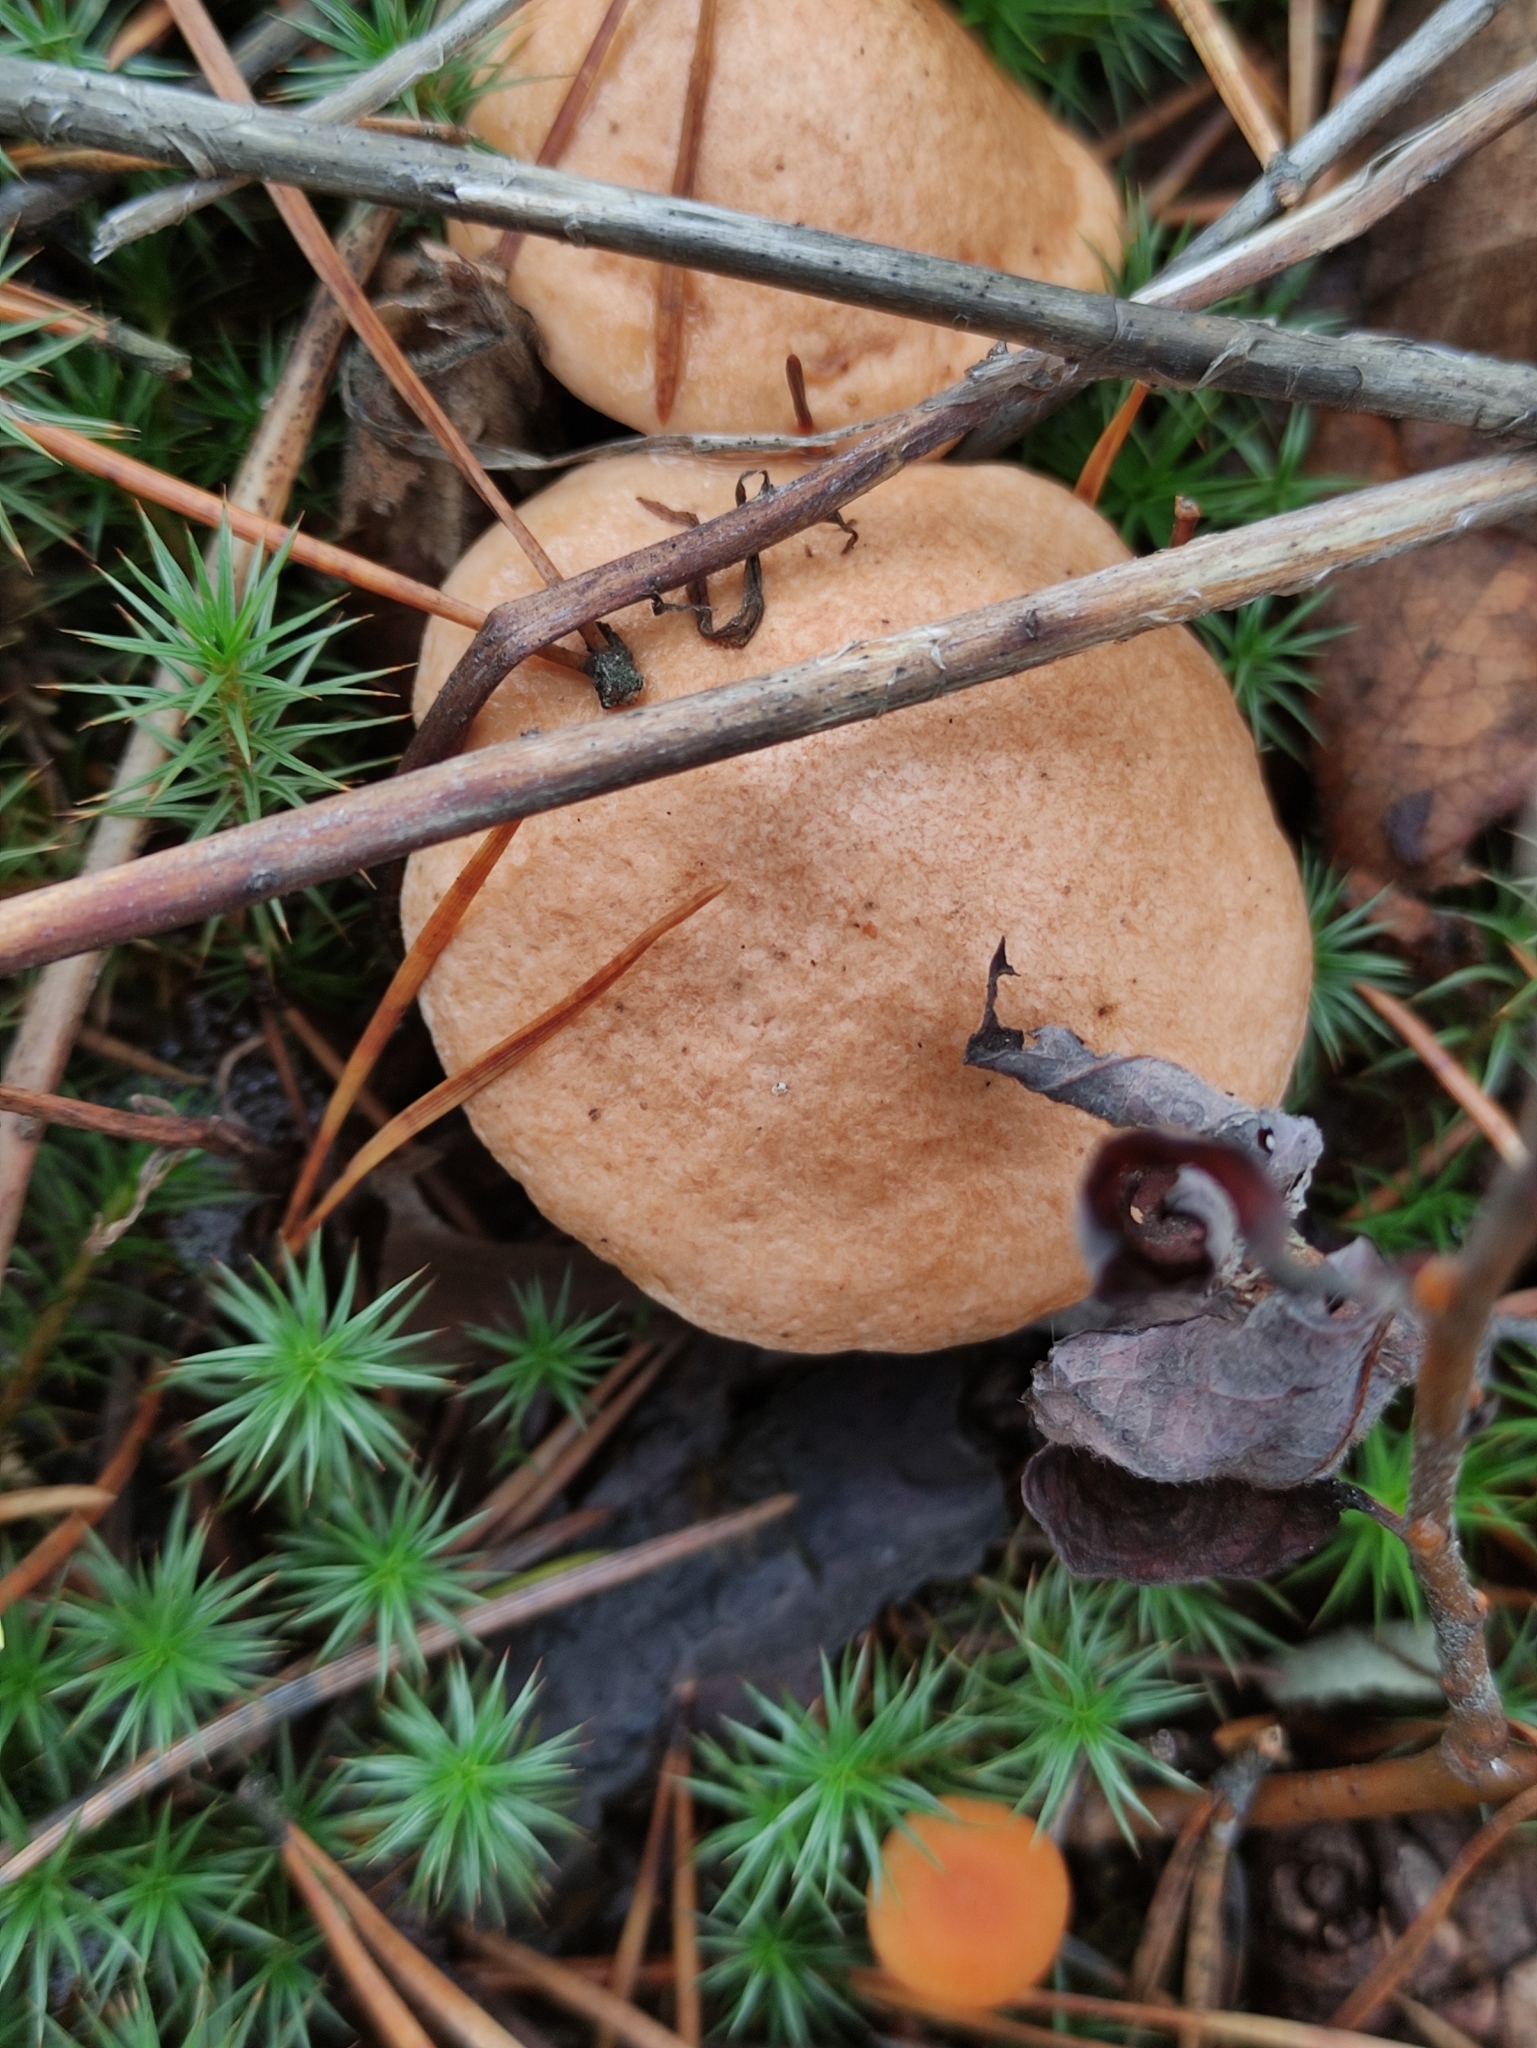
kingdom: Fungi
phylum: Basidiomycota
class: Agaricomycetes
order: Boletales
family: Suillaceae
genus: Suillus
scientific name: Suillus bovinus
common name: Bovine bolete
